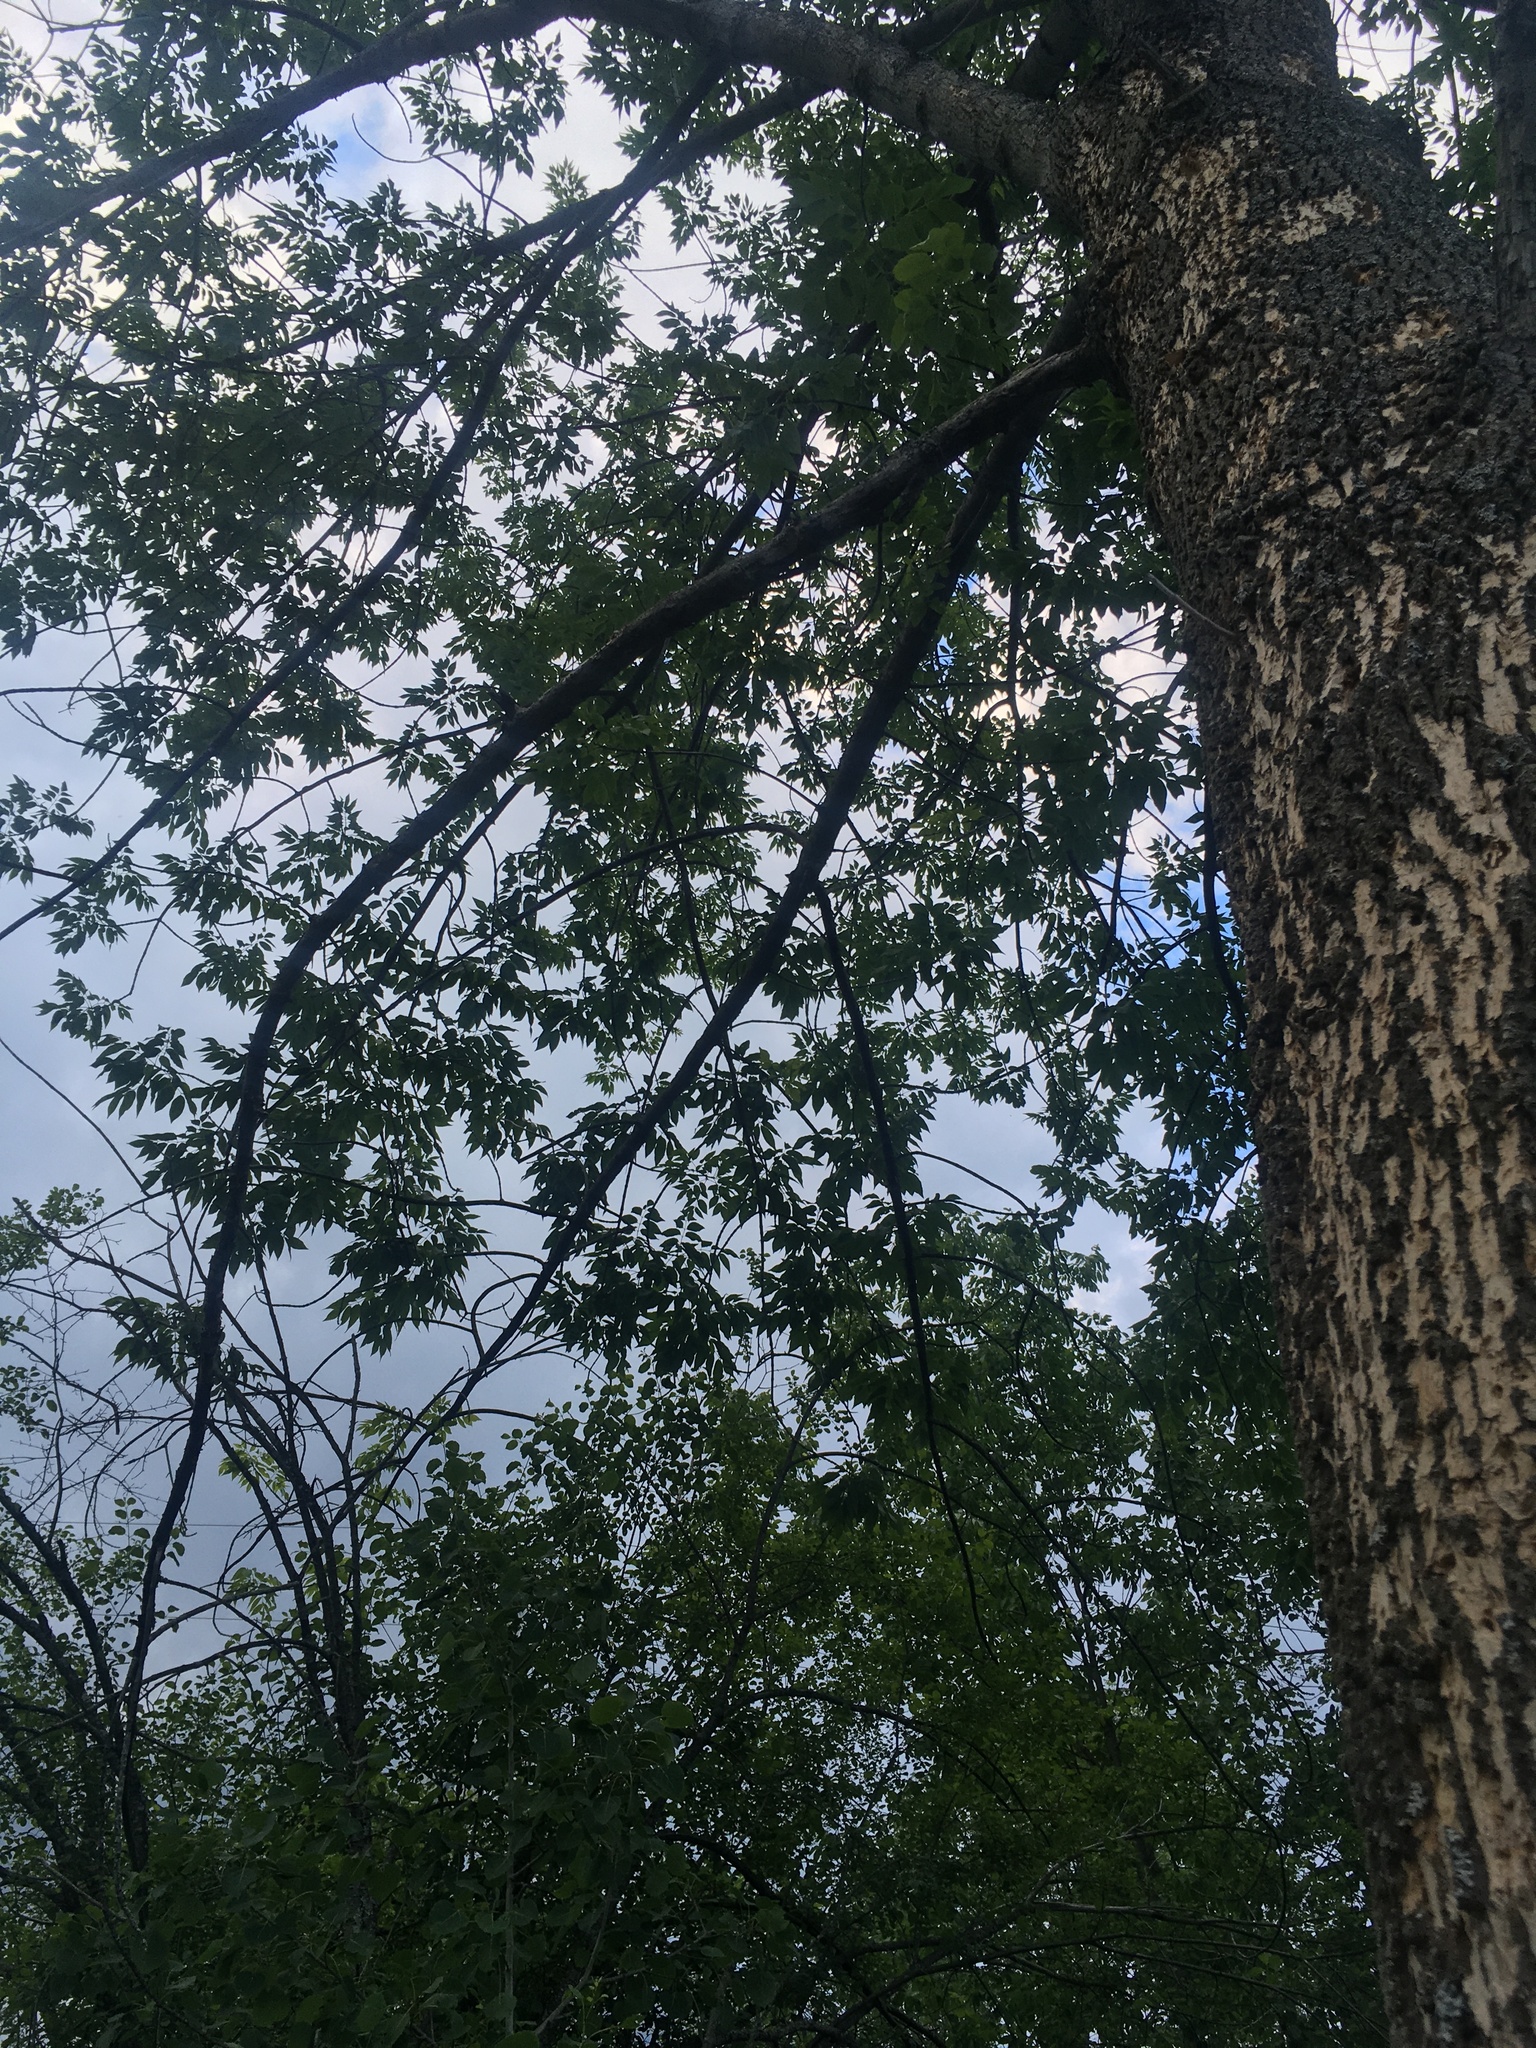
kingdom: Animalia
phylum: Arthropoda
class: Insecta
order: Coleoptera
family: Buprestidae
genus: Agrilus
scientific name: Agrilus planipennis
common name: Emerald ash borer
